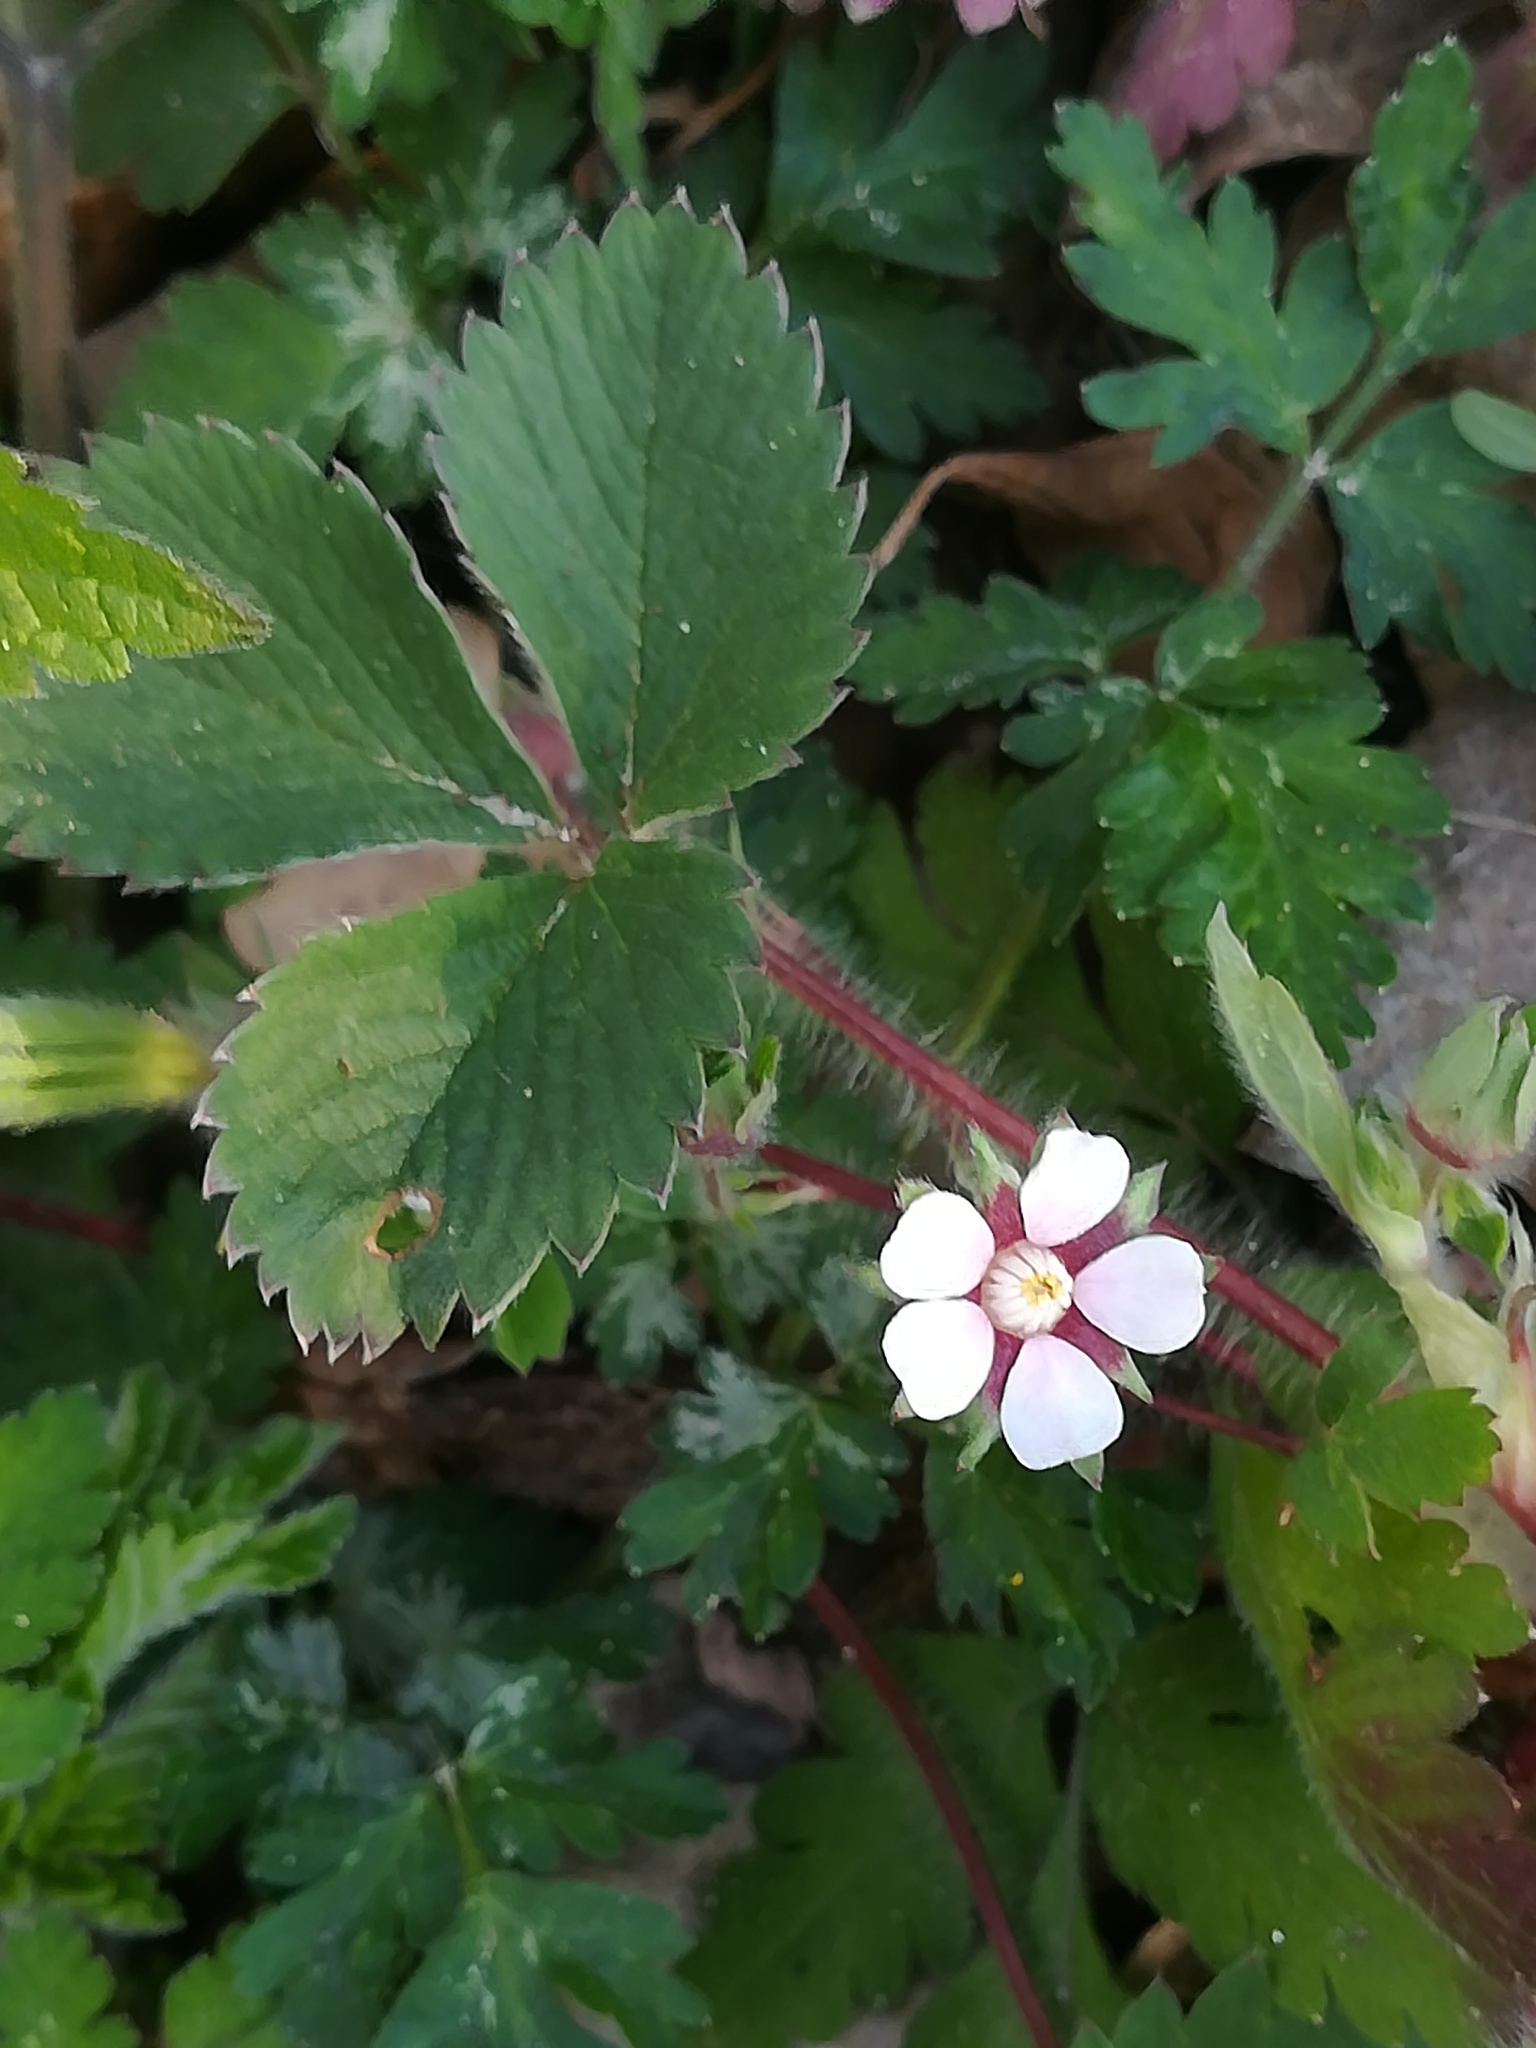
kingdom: Plantae
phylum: Tracheophyta
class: Magnoliopsida
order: Rosales
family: Rosaceae
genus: Potentilla
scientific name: Potentilla micrantha
